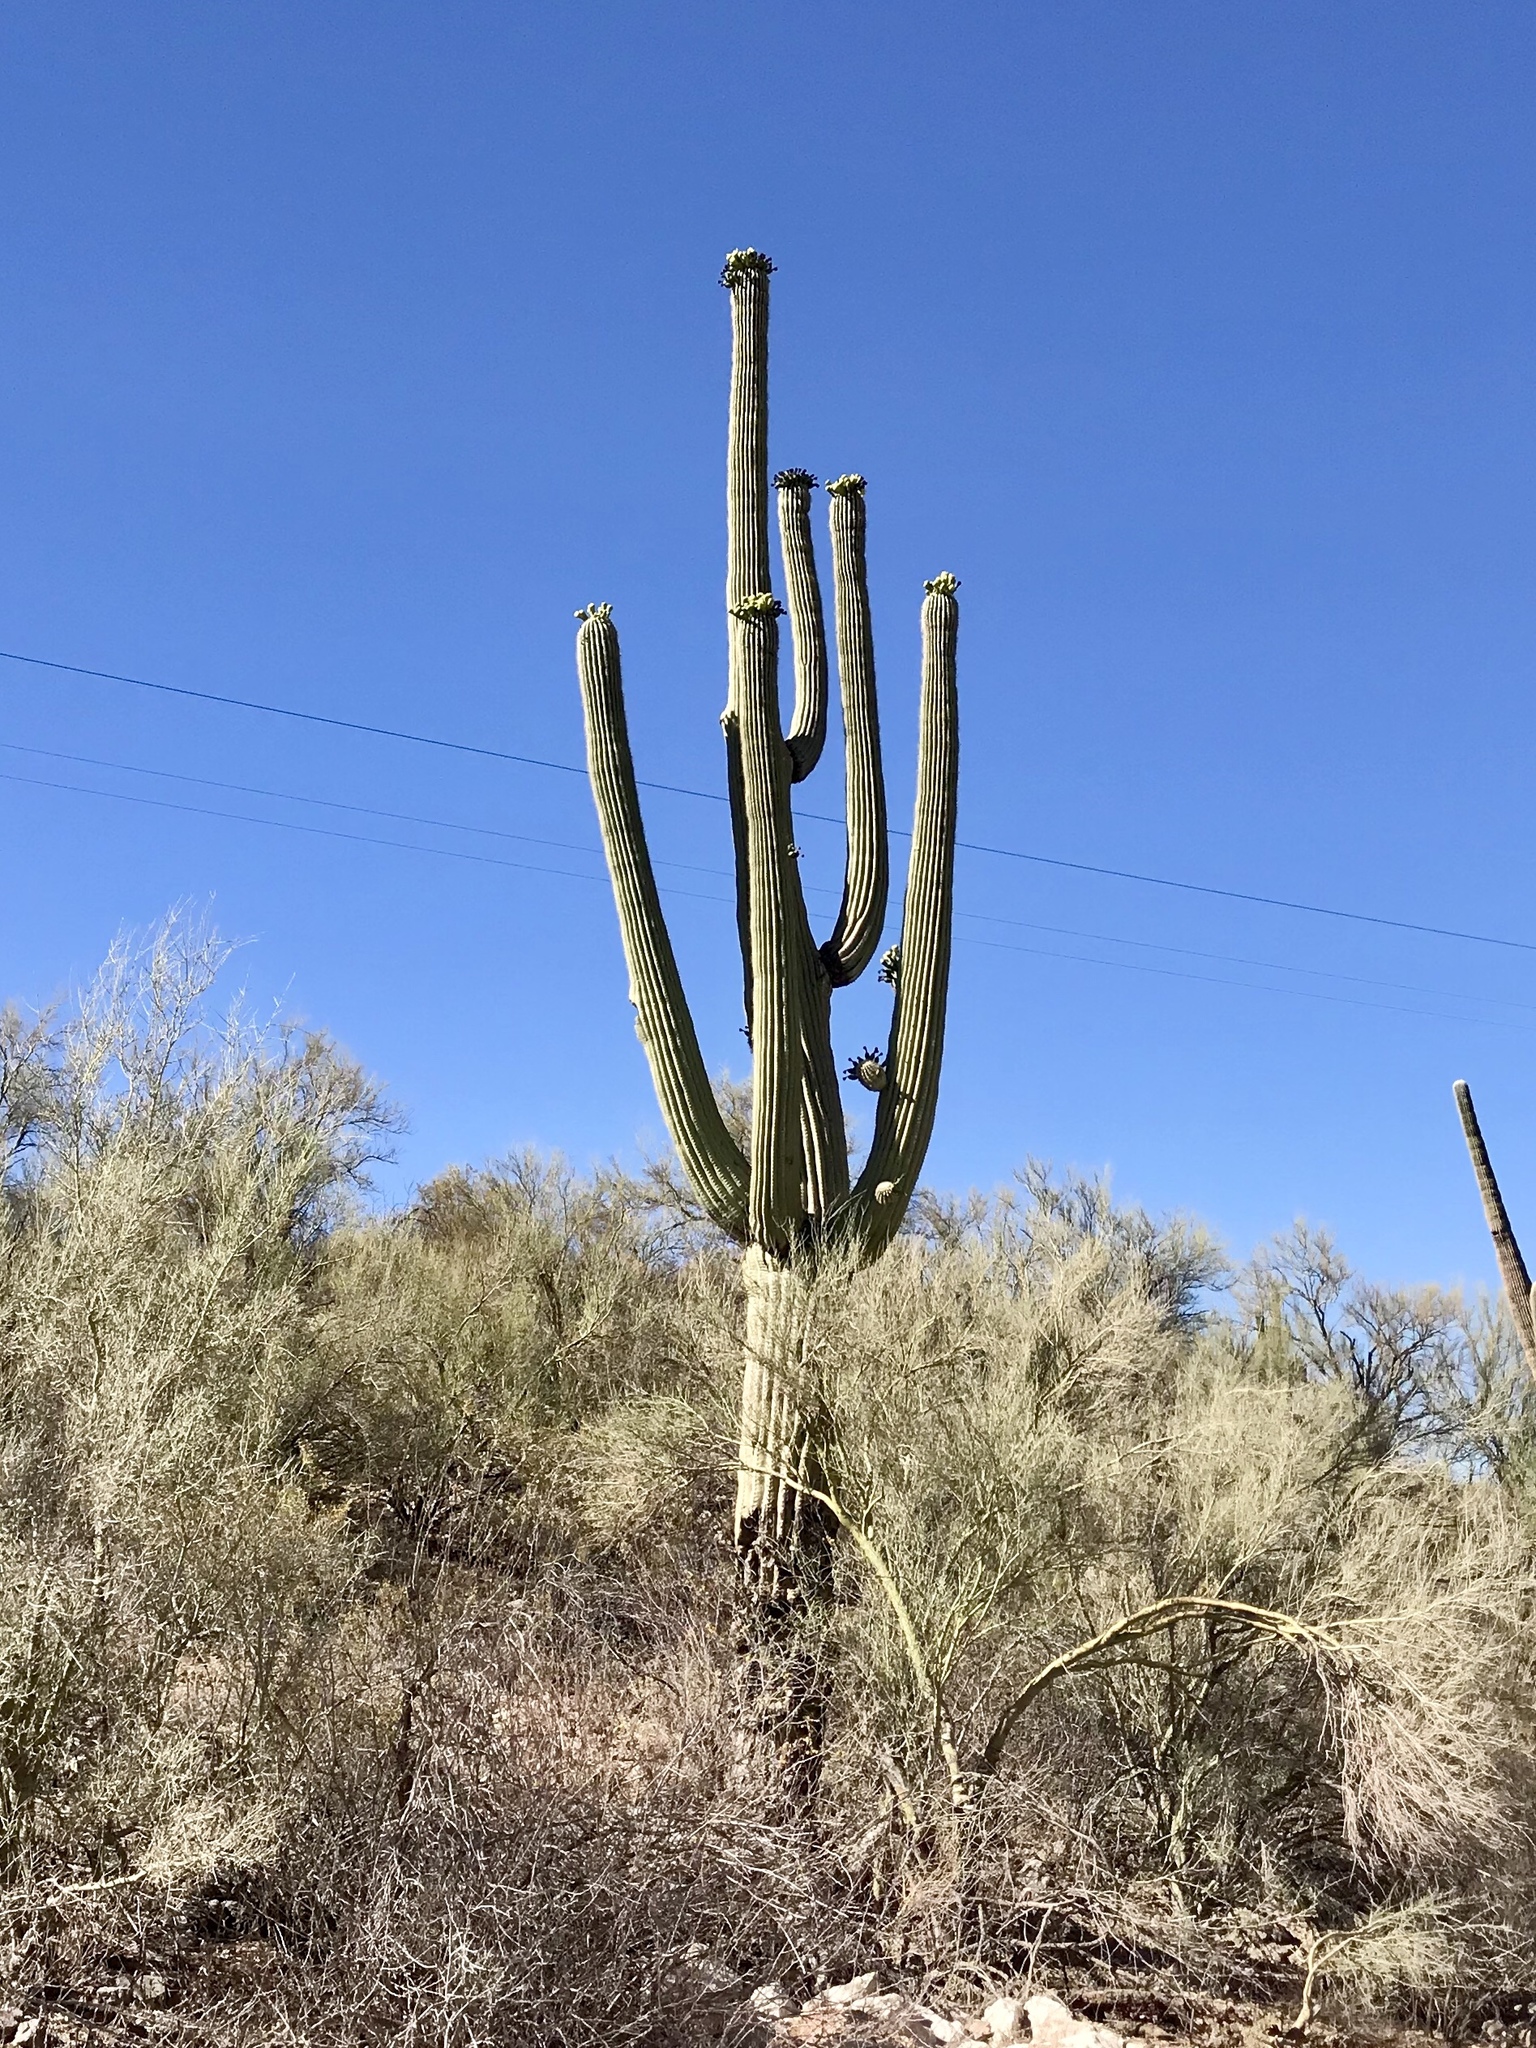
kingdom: Plantae
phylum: Tracheophyta
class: Magnoliopsida
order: Caryophyllales
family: Cactaceae
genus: Carnegiea
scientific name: Carnegiea gigantea
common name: Saguaro
